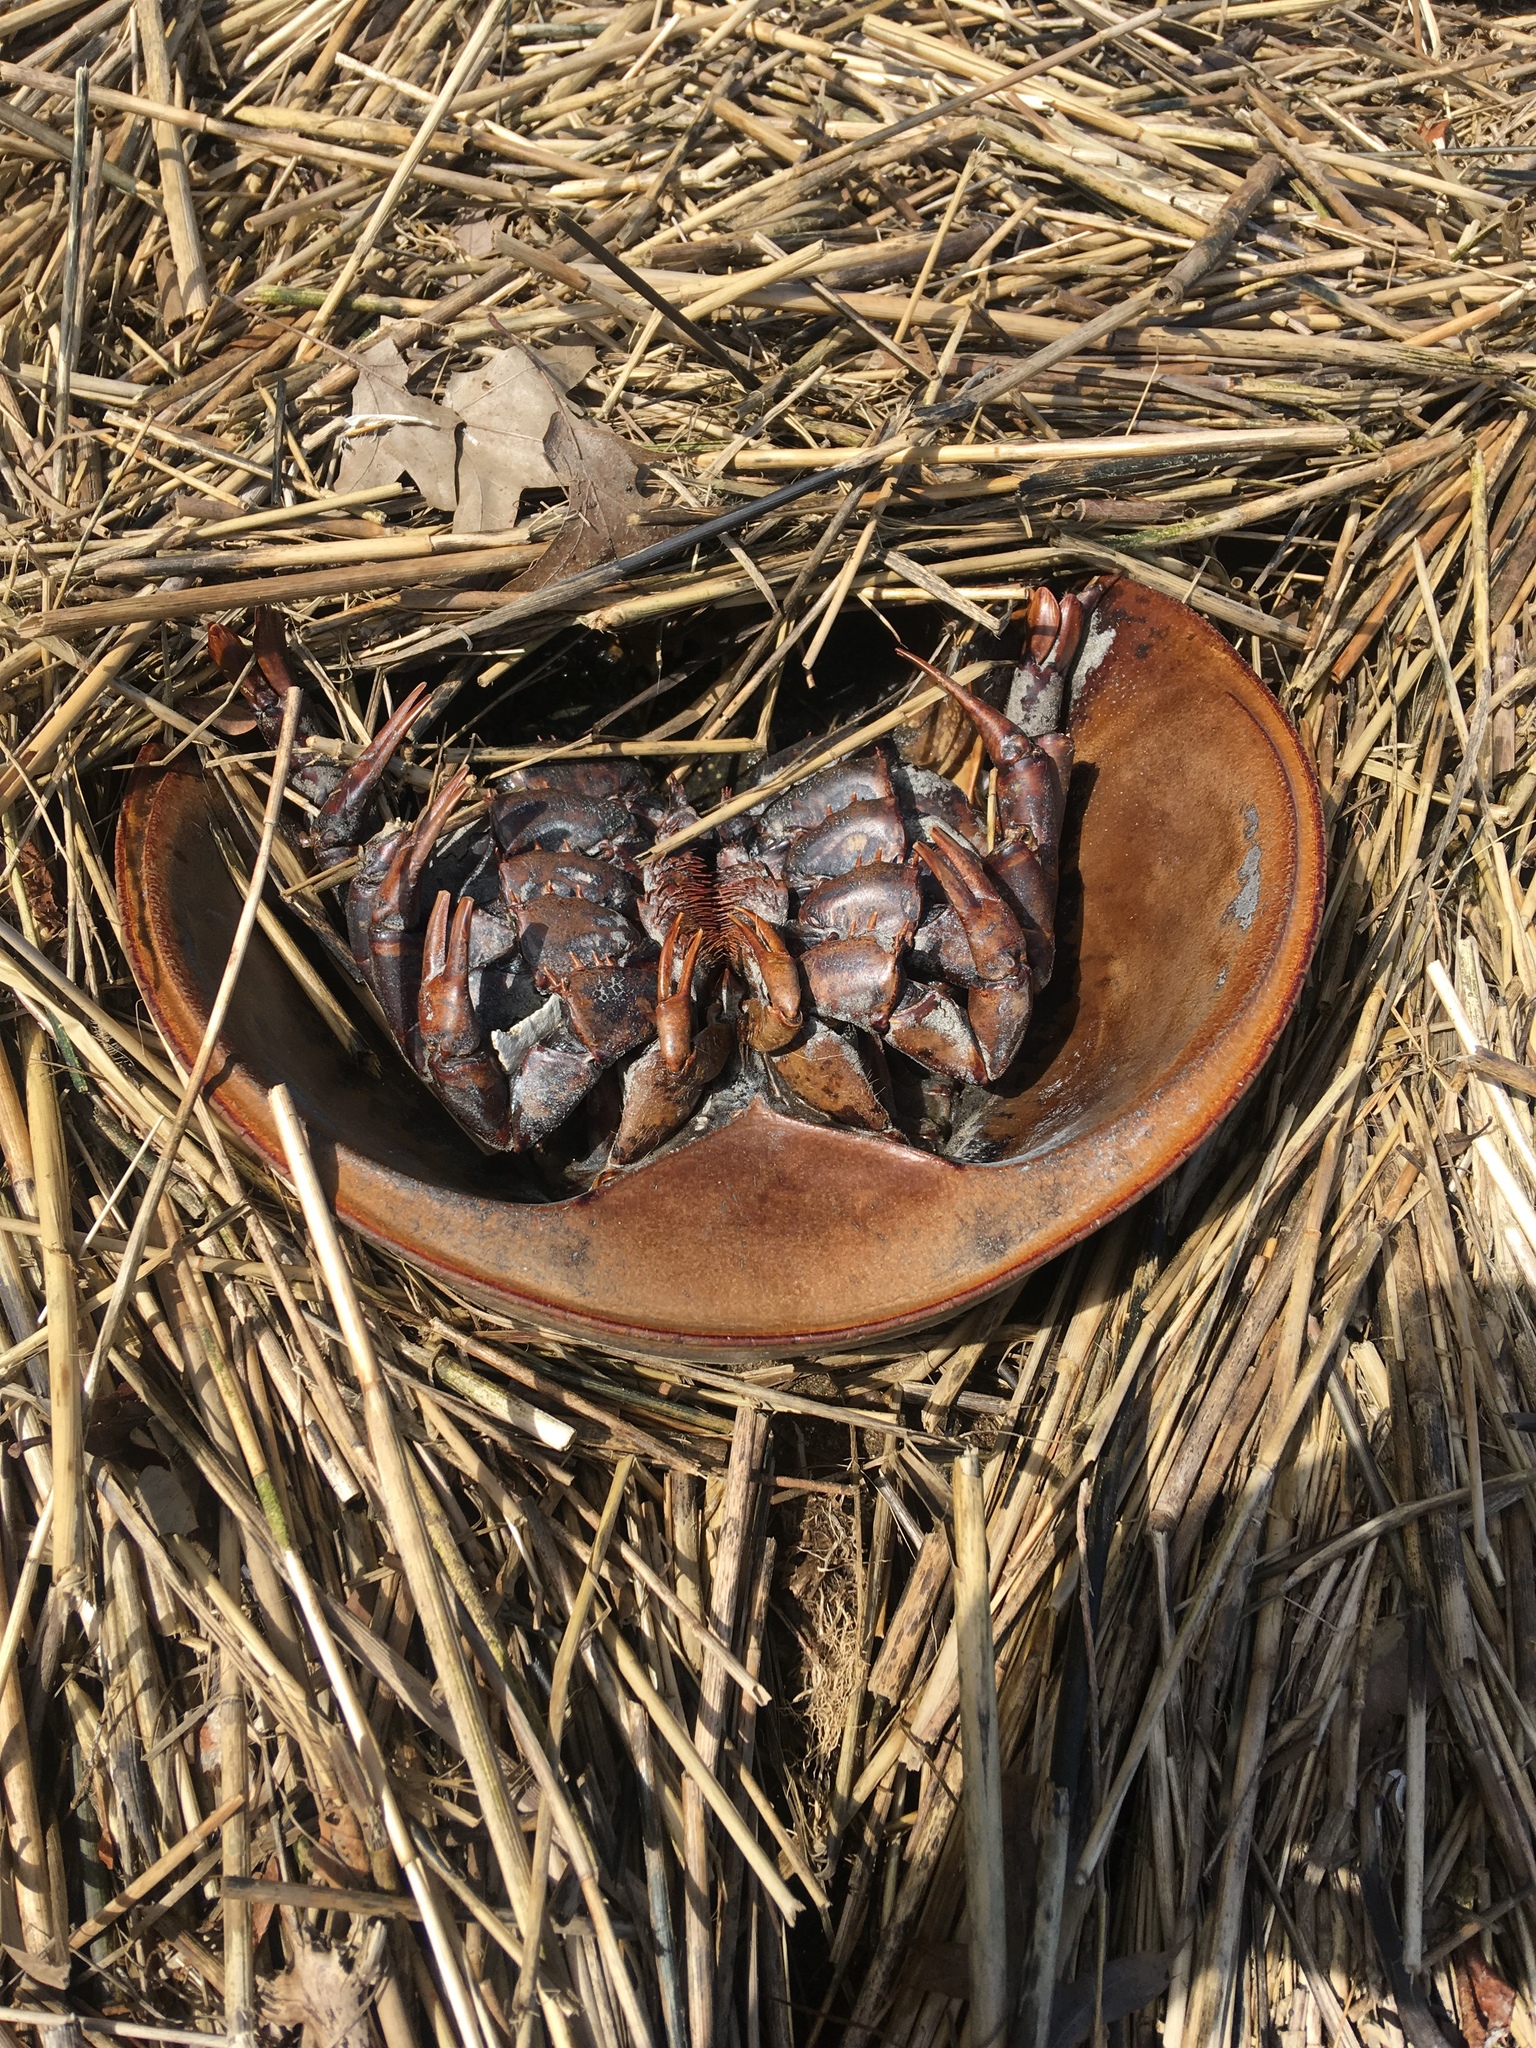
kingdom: Animalia
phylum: Arthropoda
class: Merostomata
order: Xiphosurida
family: Limulidae
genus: Limulus
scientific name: Limulus polyphemus
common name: Horseshoe crab
